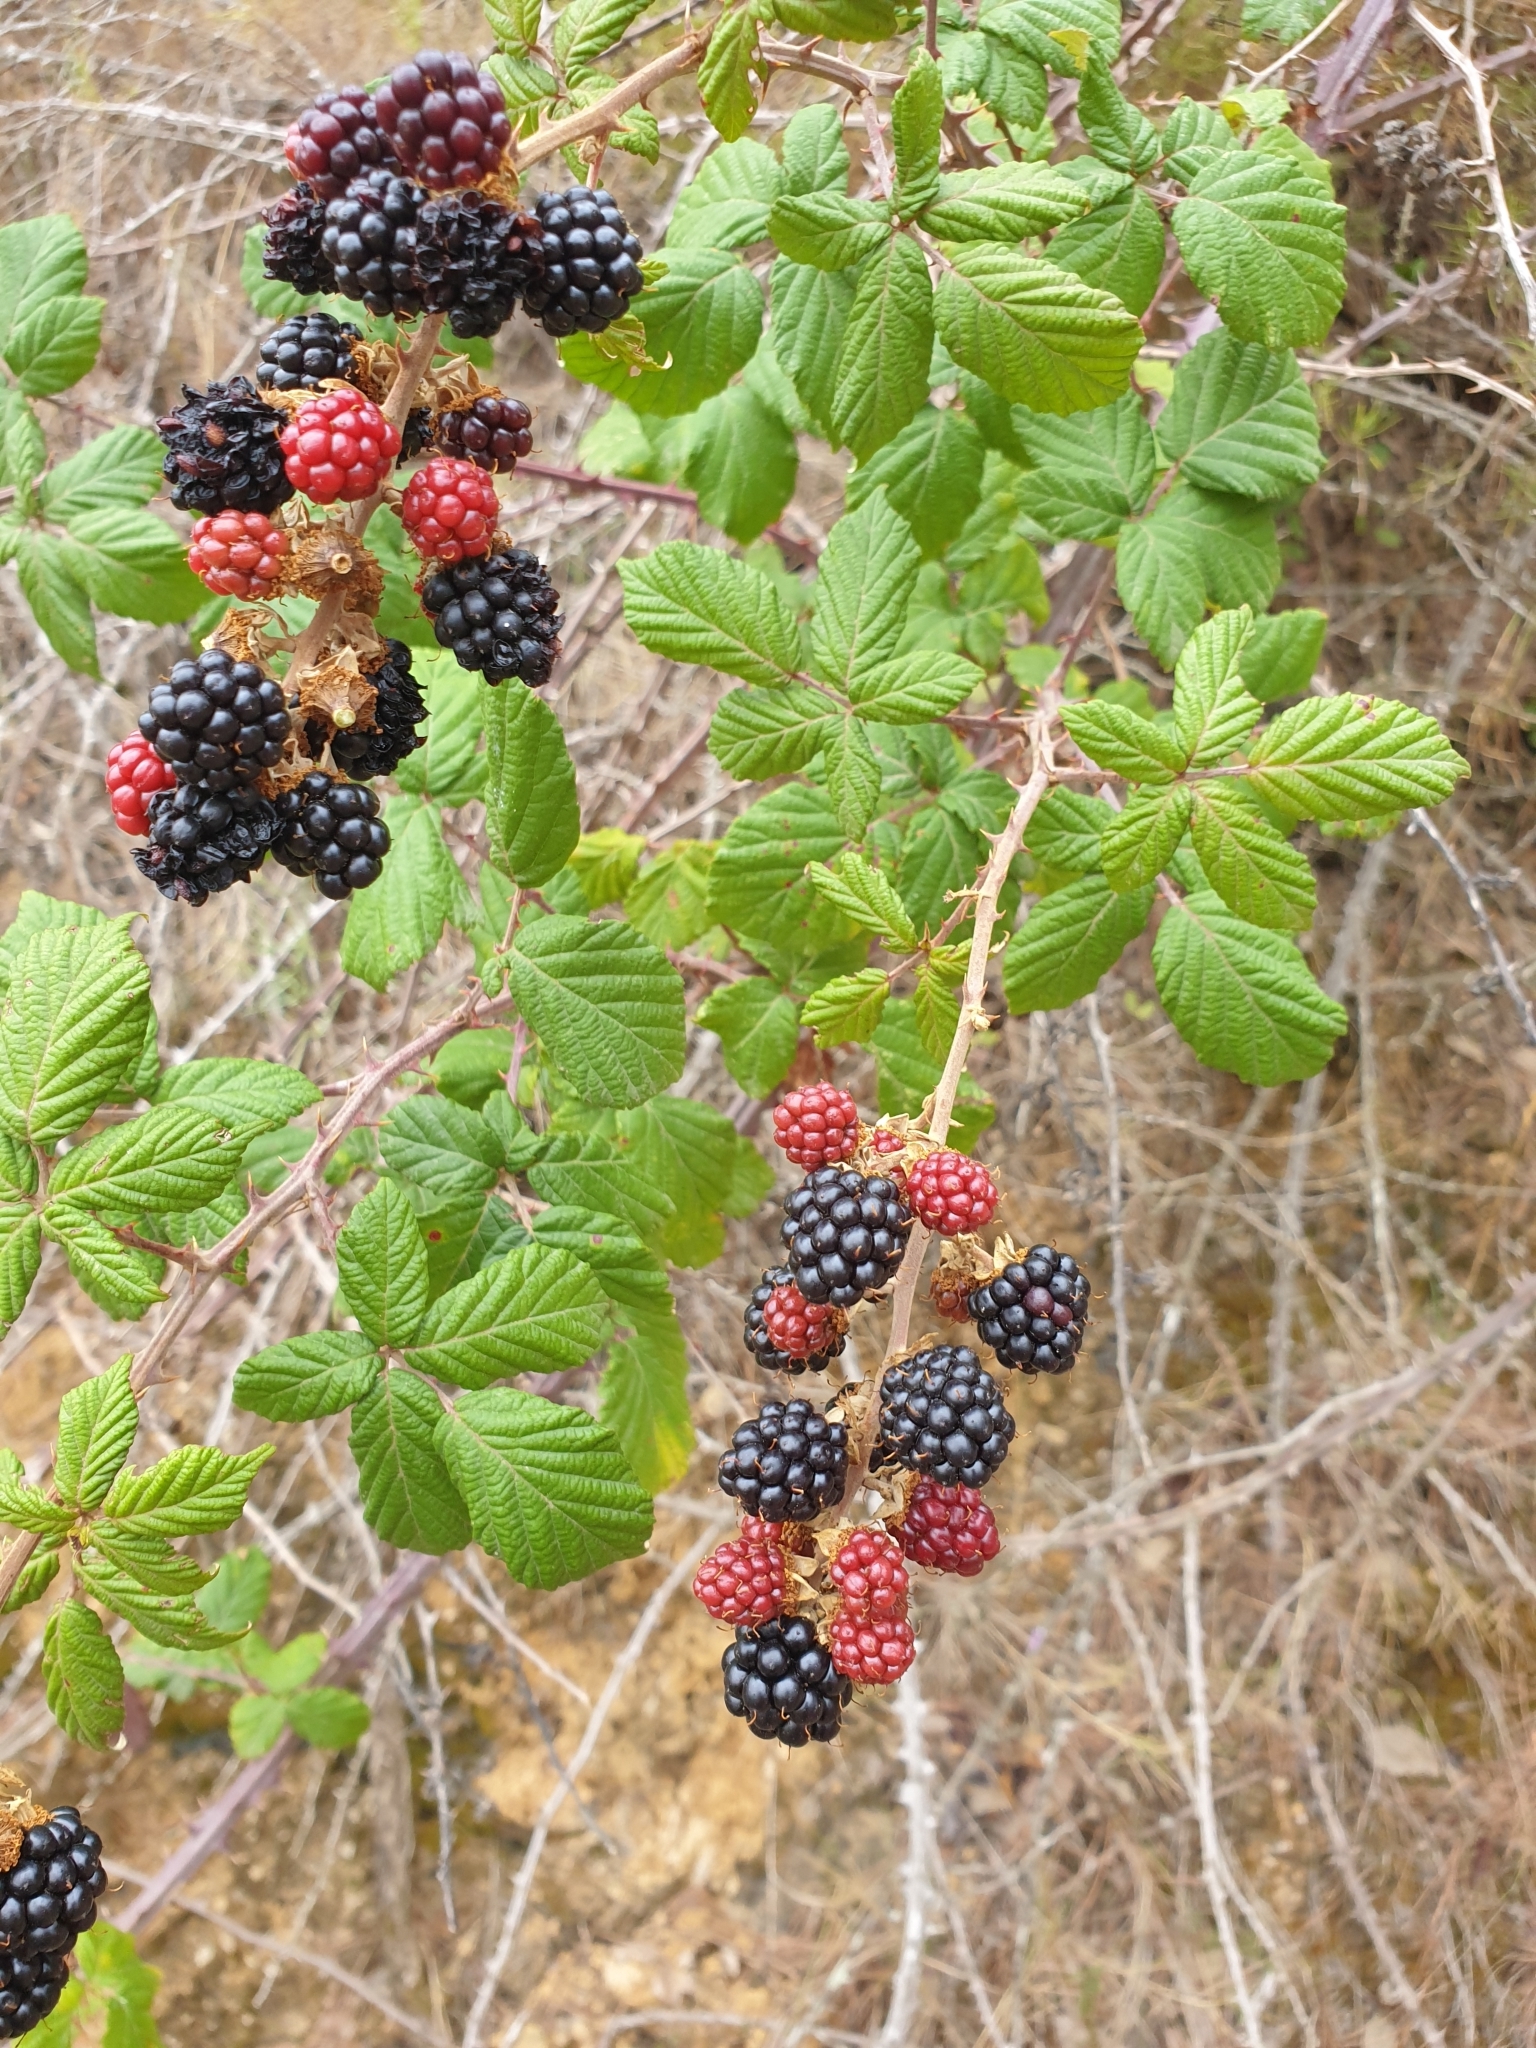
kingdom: Plantae
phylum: Tracheophyta
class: Magnoliopsida
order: Rosales
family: Rosaceae
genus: Rubus
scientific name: Rubus ulmifolius
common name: Elmleaf blackberry
